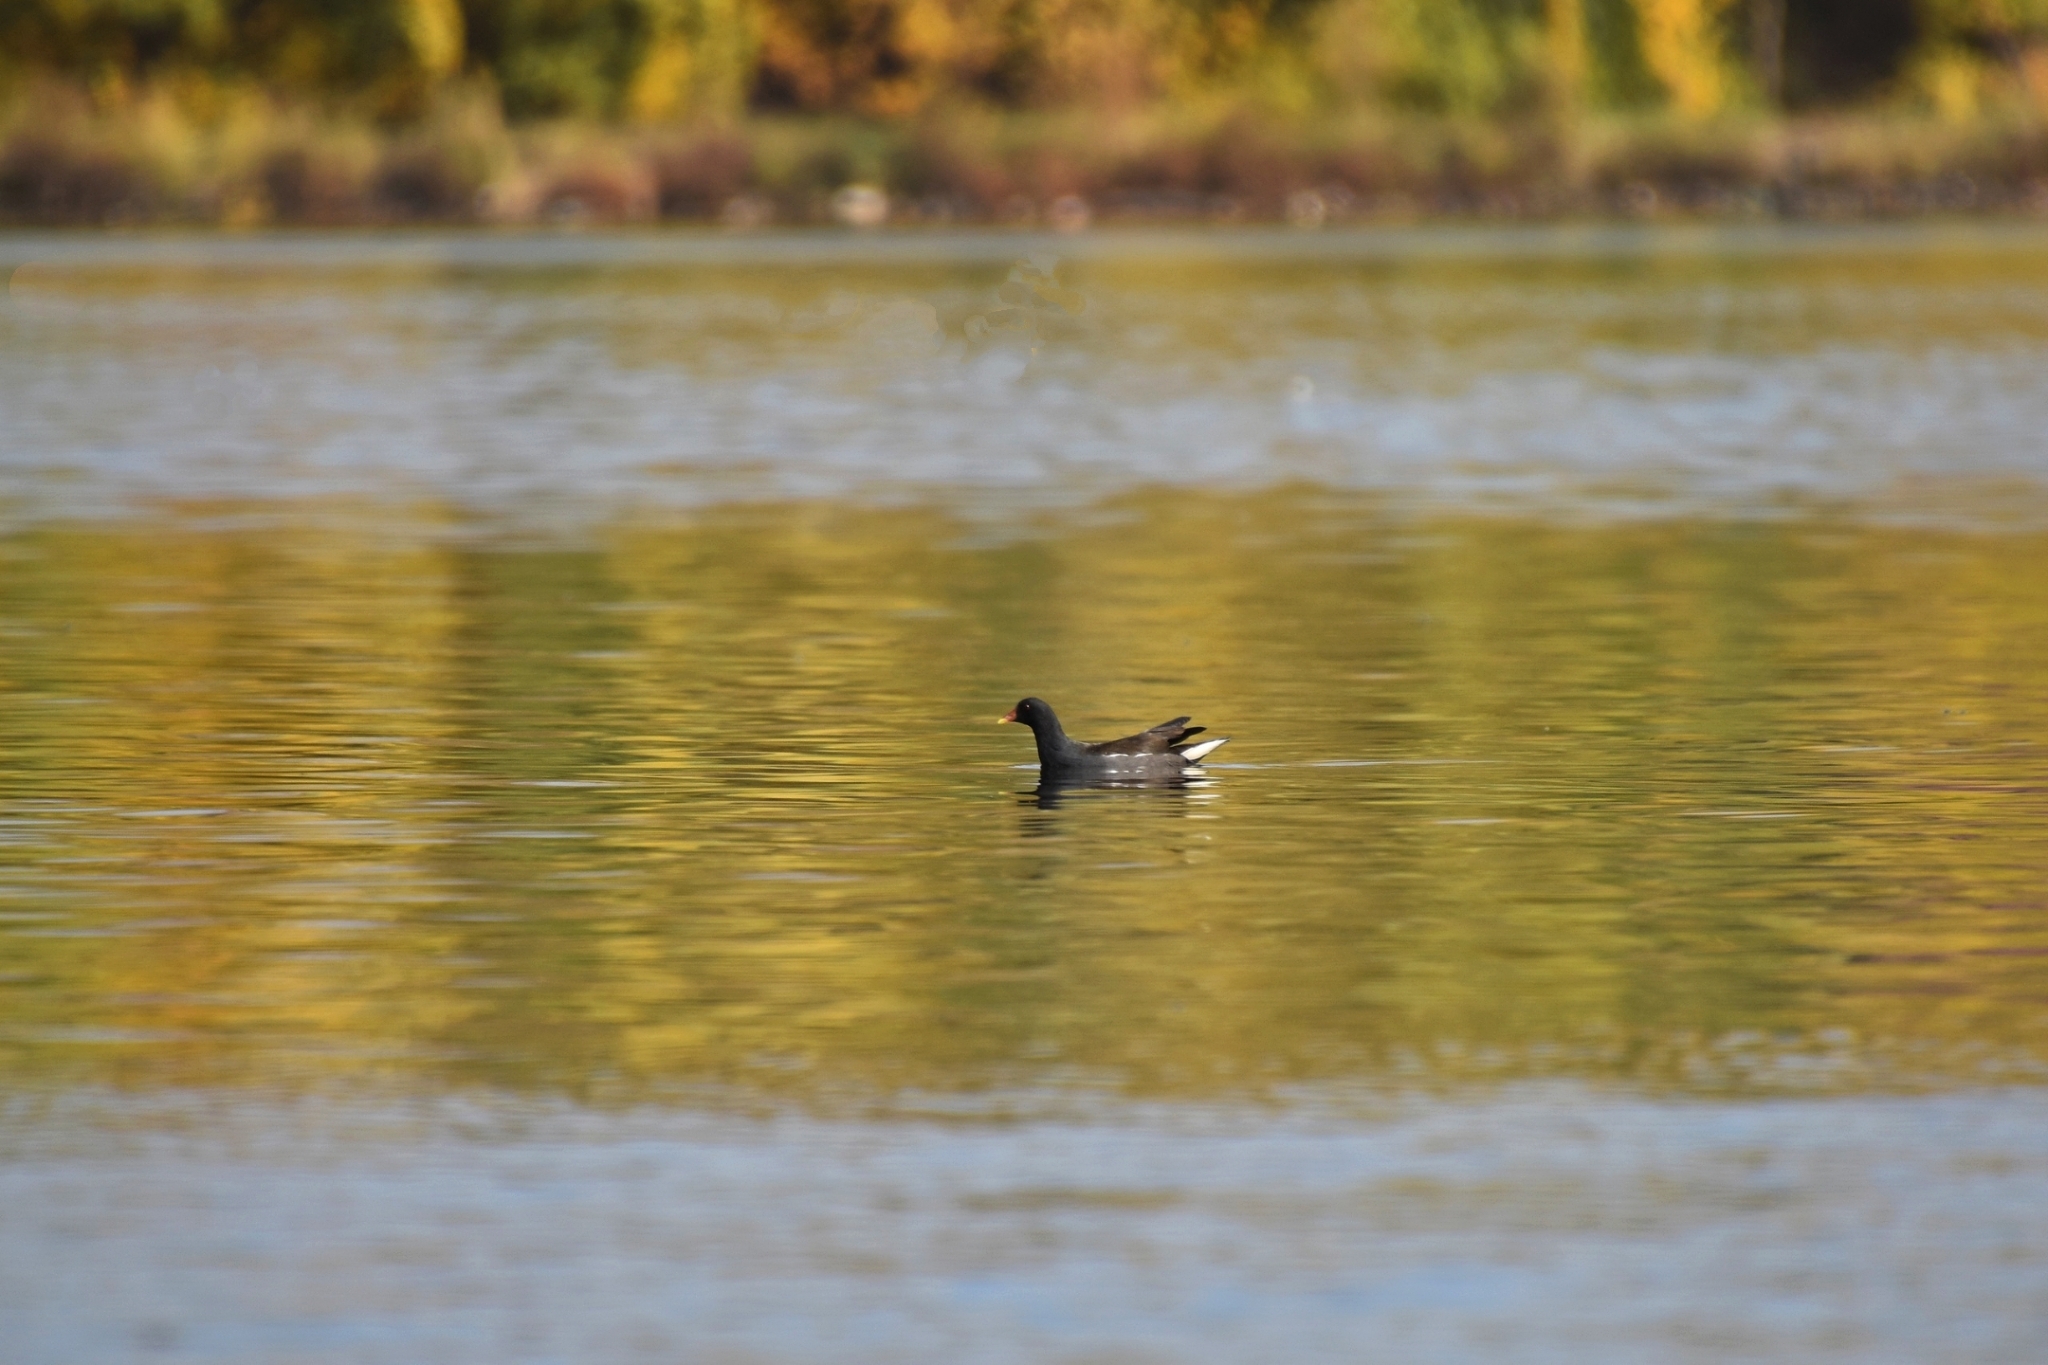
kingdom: Animalia
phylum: Chordata
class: Aves
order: Gruiformes
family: Rallidae
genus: Gallinula
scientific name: Gallinula chloropus
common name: Common moorhen
